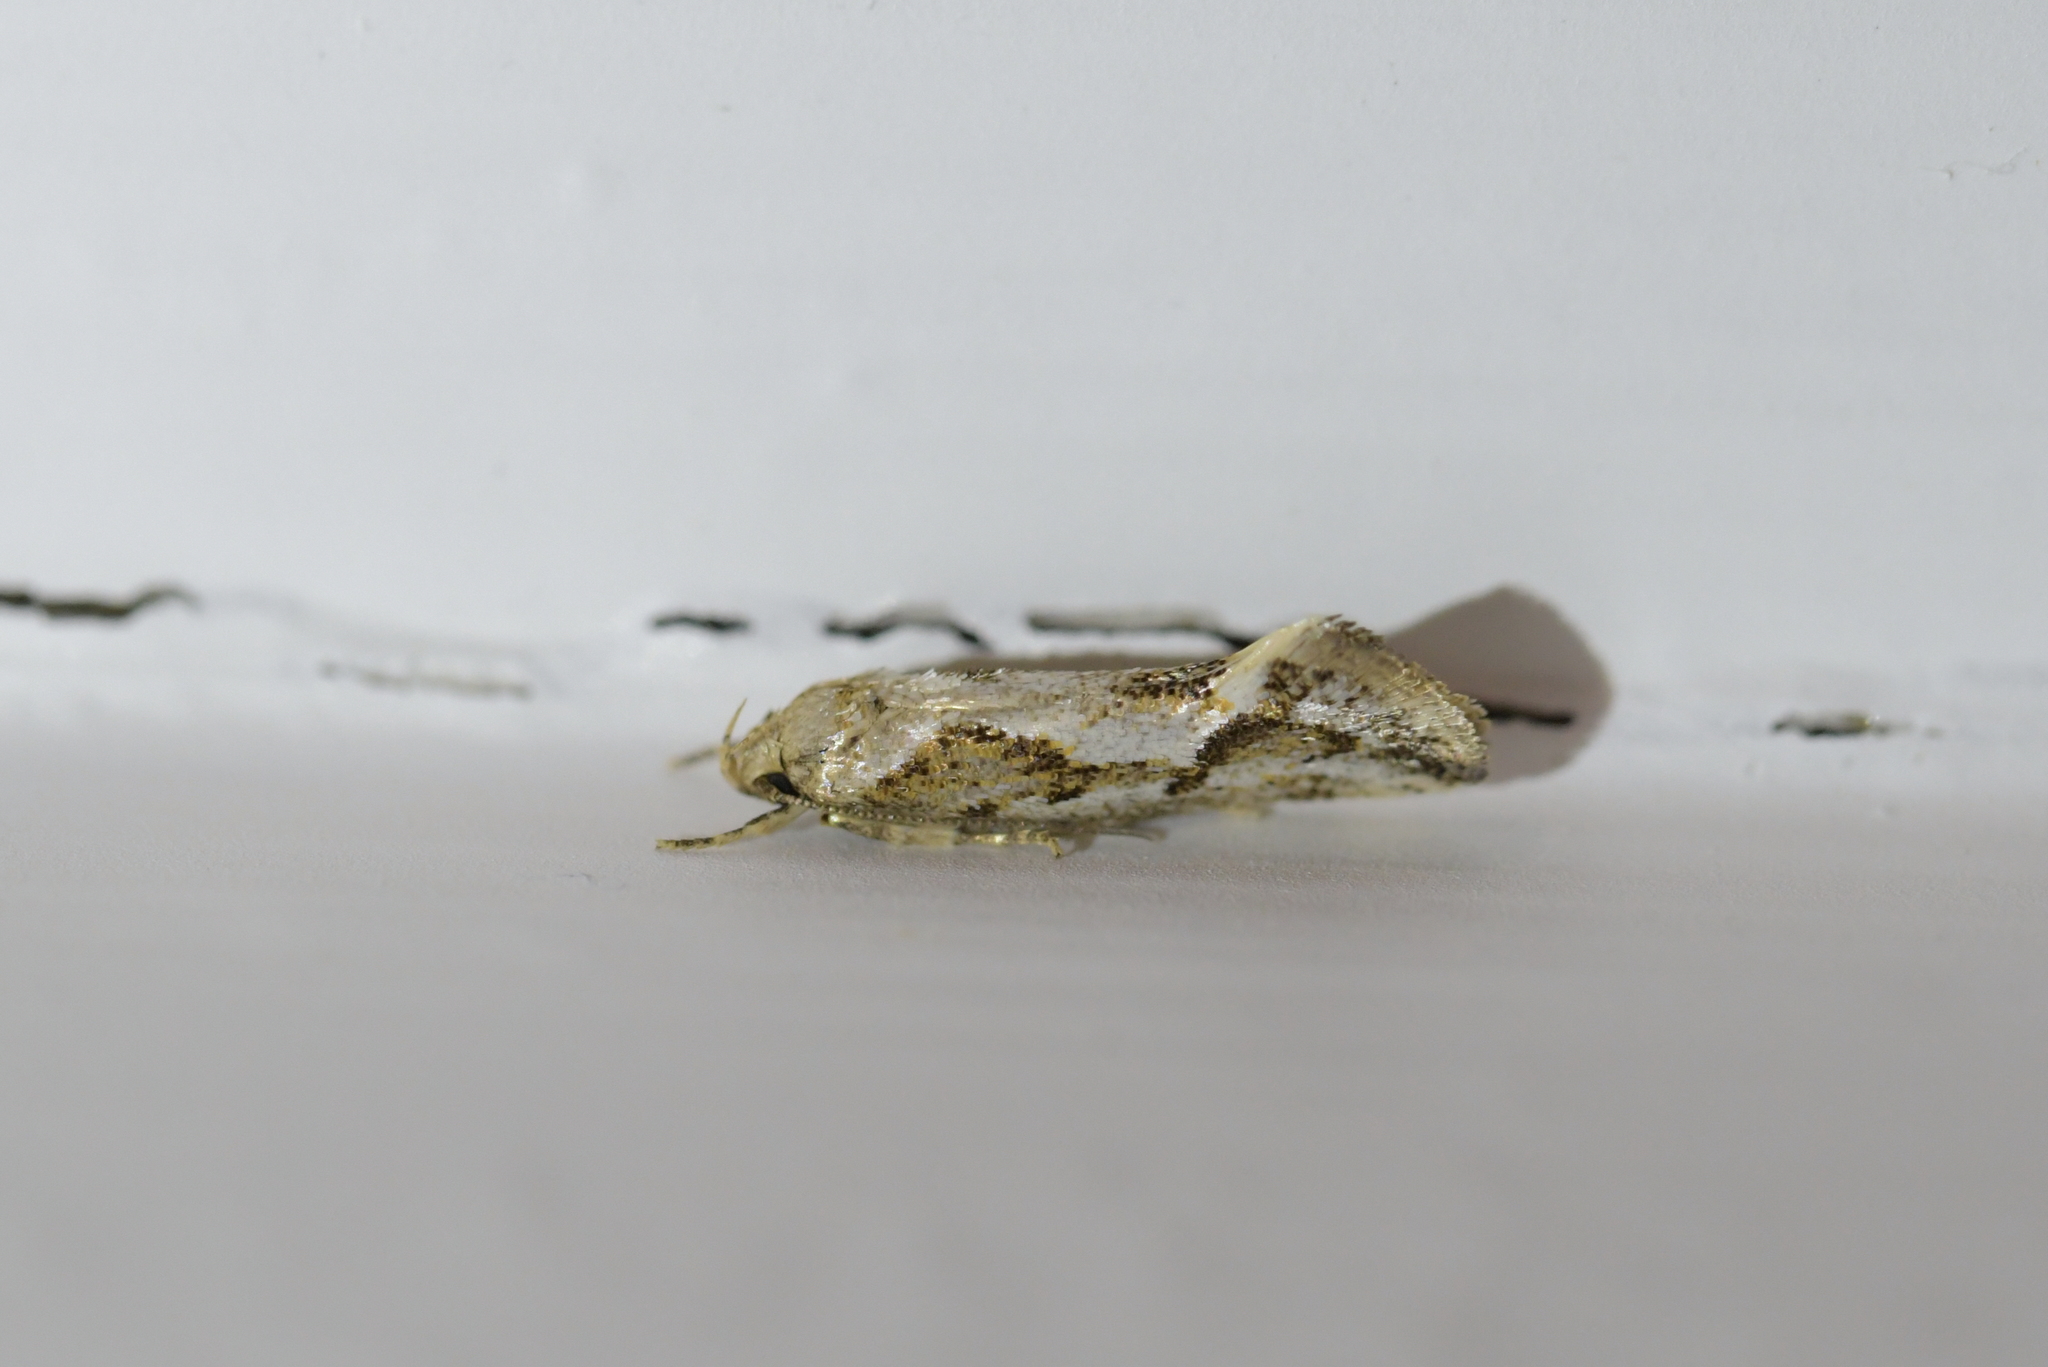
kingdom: Animalia
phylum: Arthropoda
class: Insecta
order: Lepidoptera
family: Oecophoridae
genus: Tingena
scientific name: Tingena hemimochla
